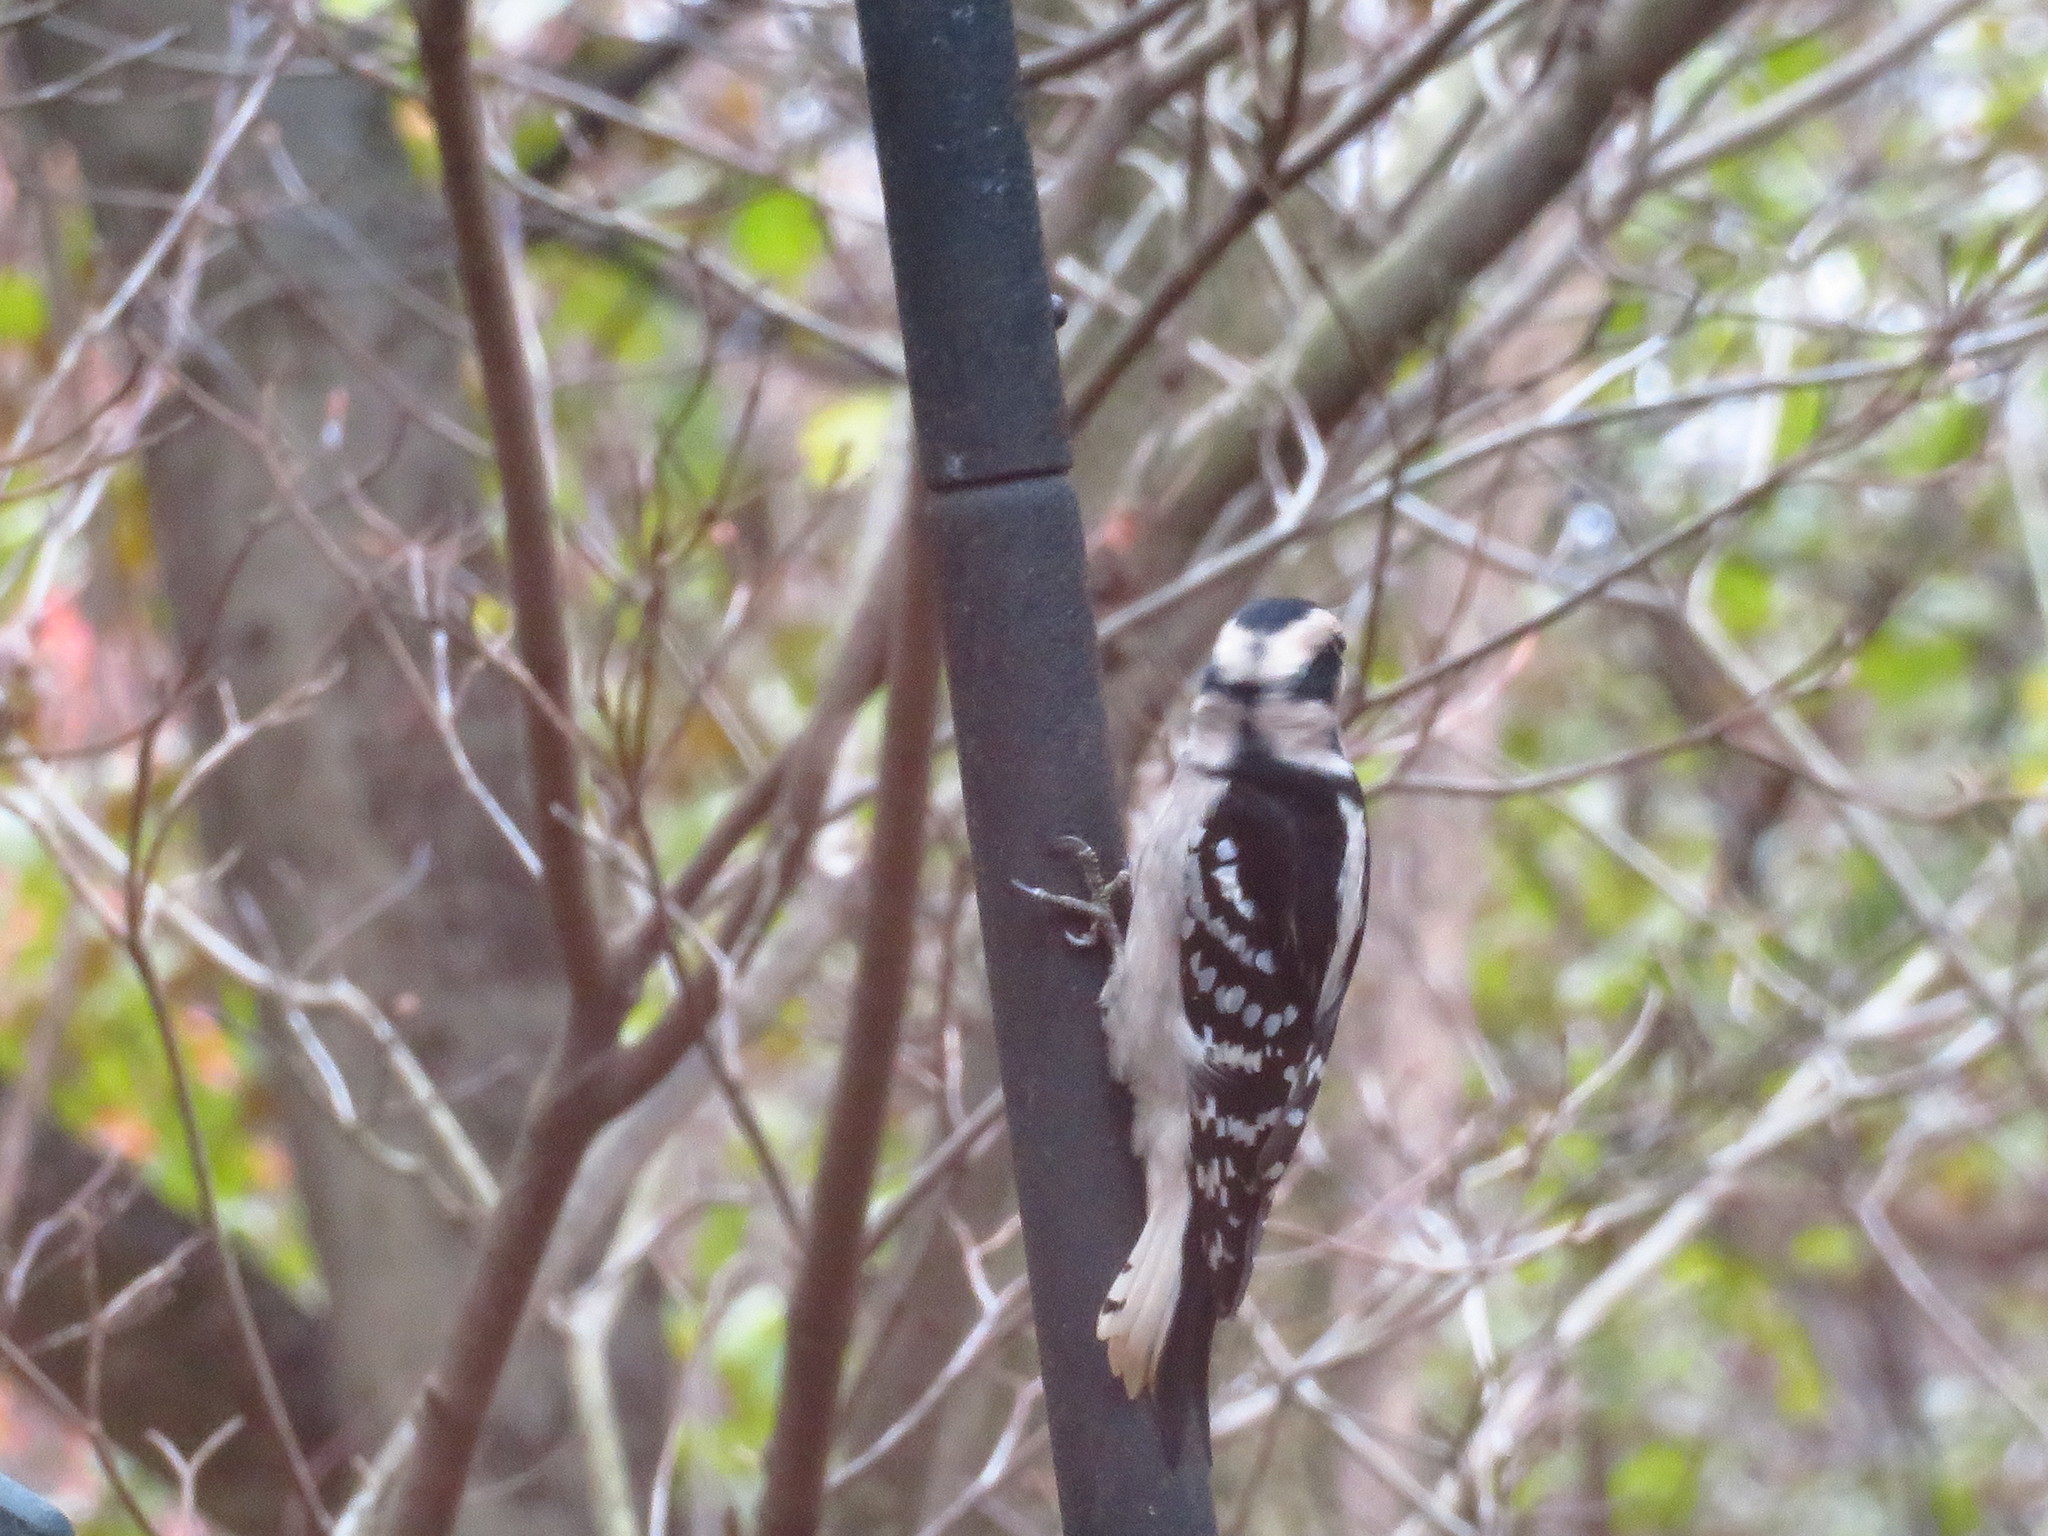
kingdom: Animalia
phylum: Chordata
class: Aves
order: Piciformes
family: Picidae
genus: Dryobates
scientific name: Dryobates pubescens
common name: Downy woodpecker
